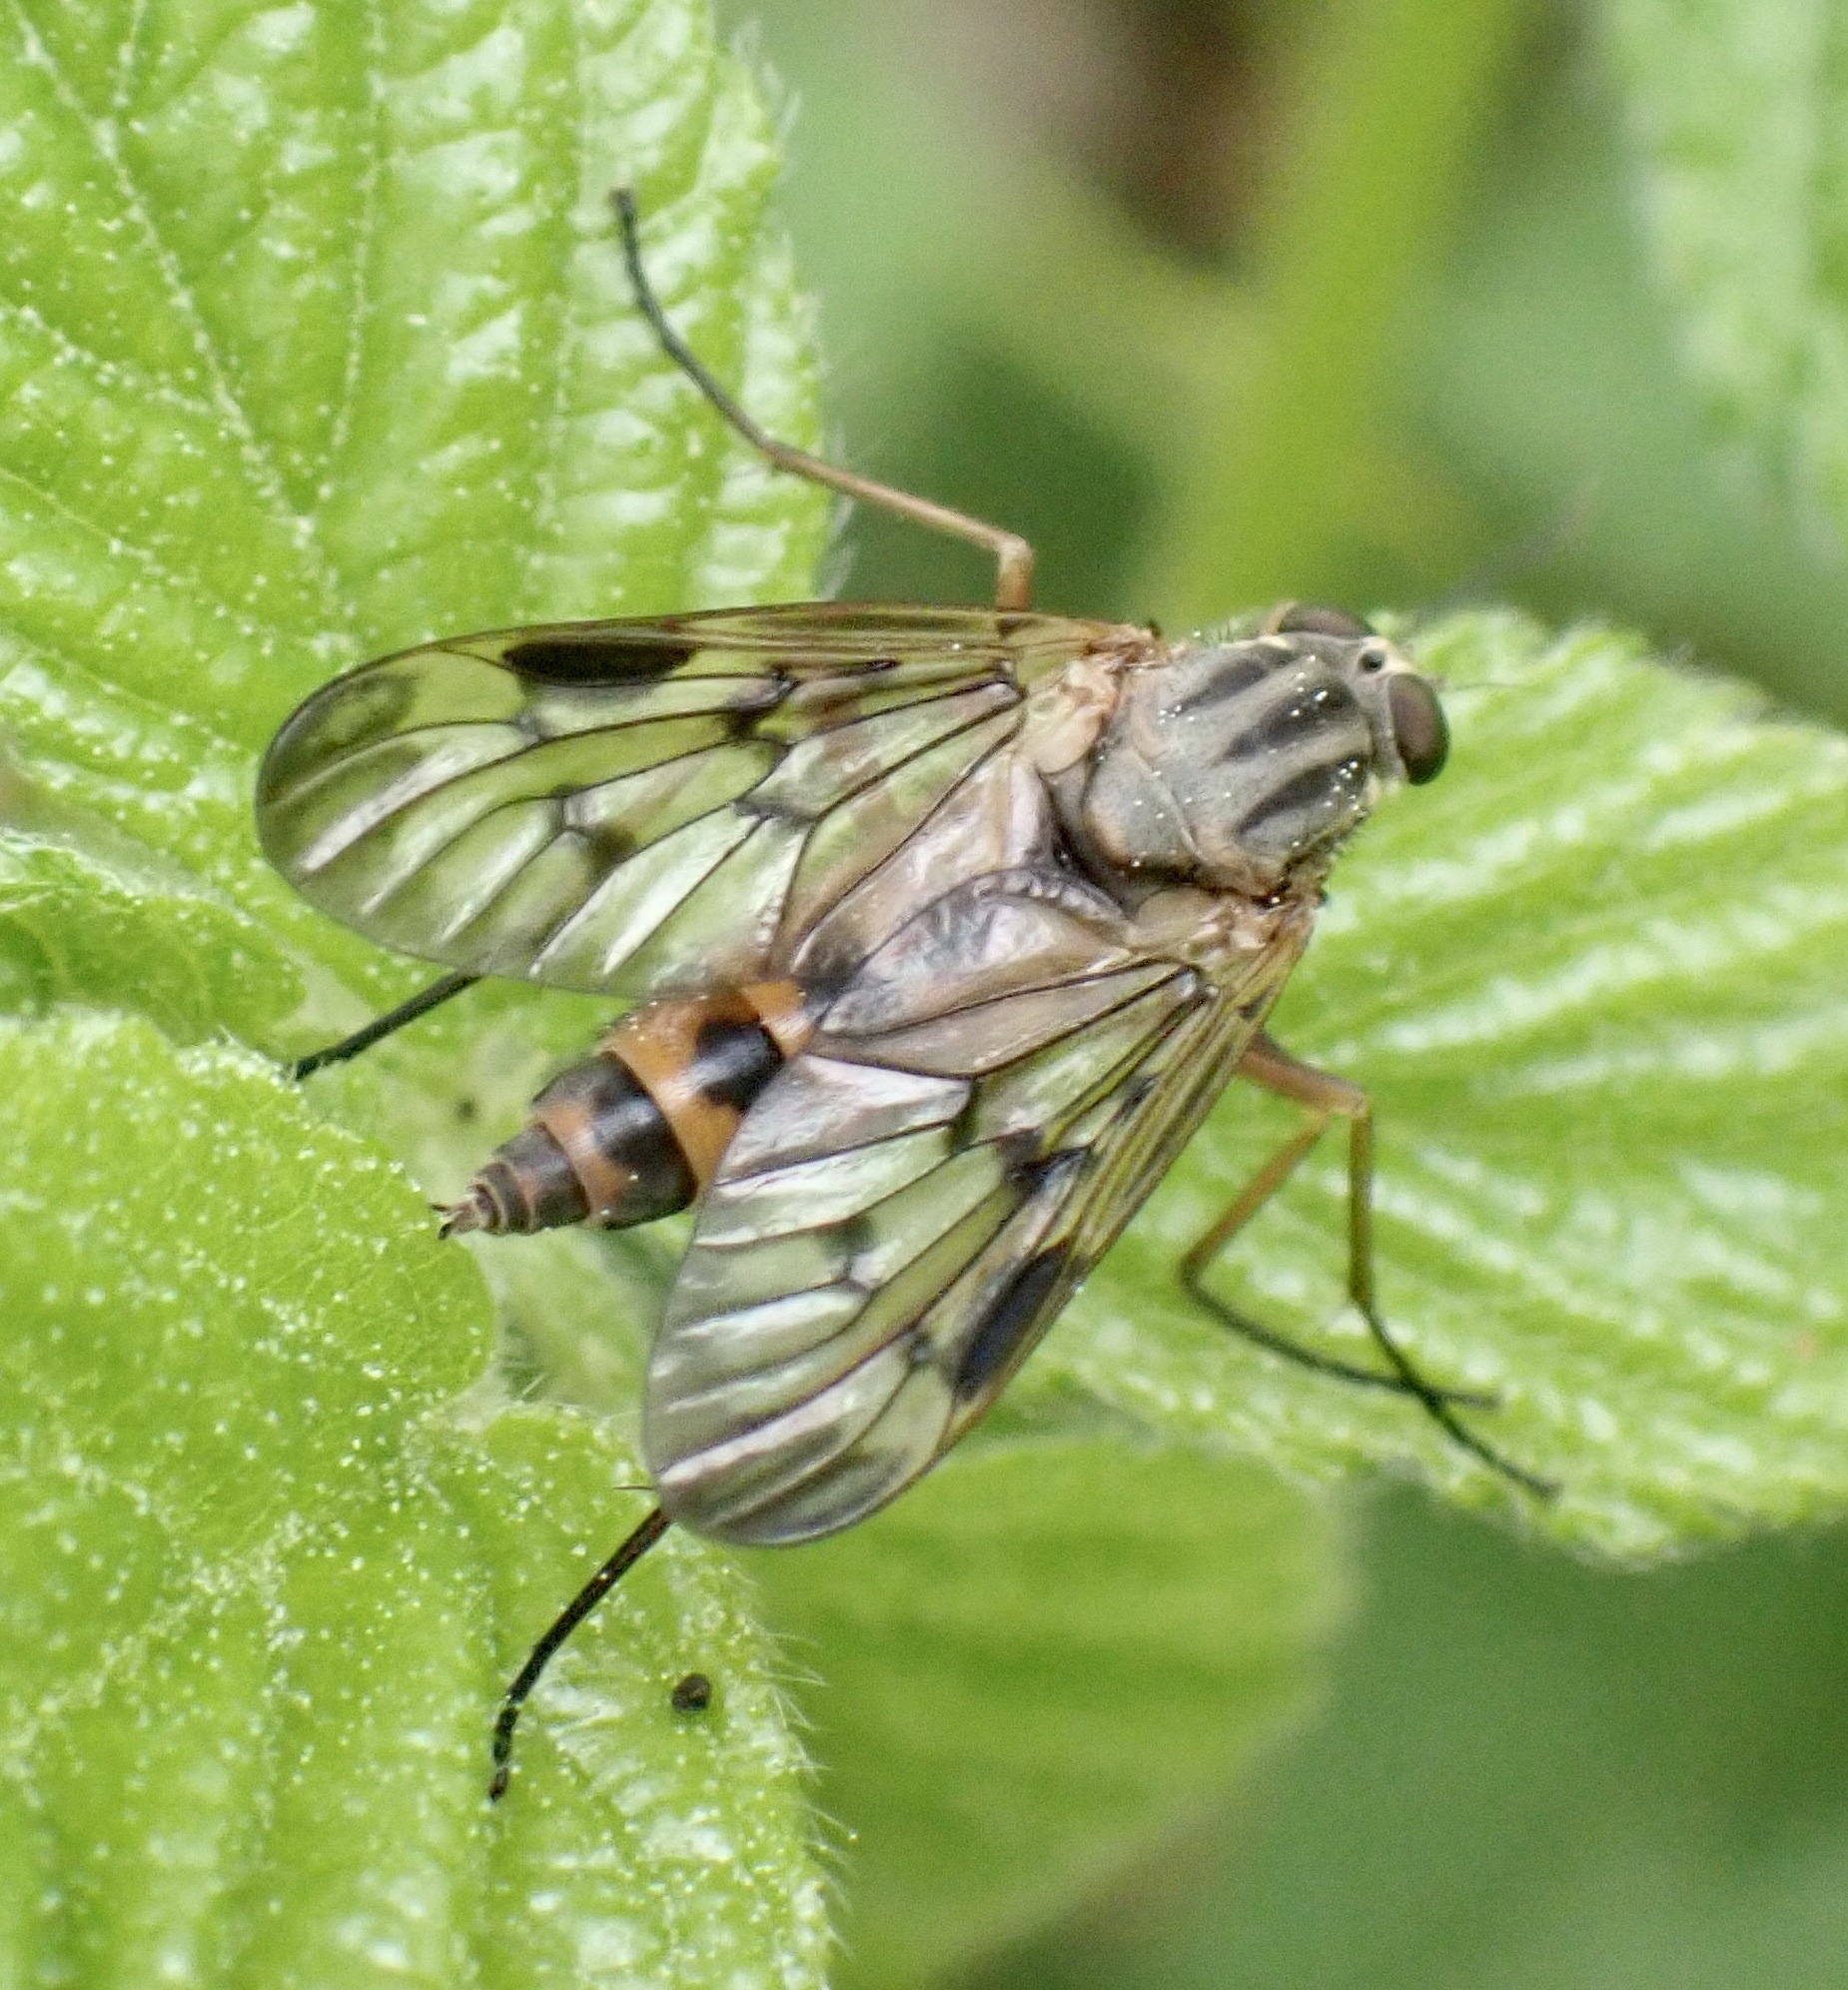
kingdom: Animalia
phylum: Arthropoda
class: Insecta
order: Diptera
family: Rhagionidae
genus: Rhagio
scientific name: Rhagio scolopacea
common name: Downlooker snipefly
